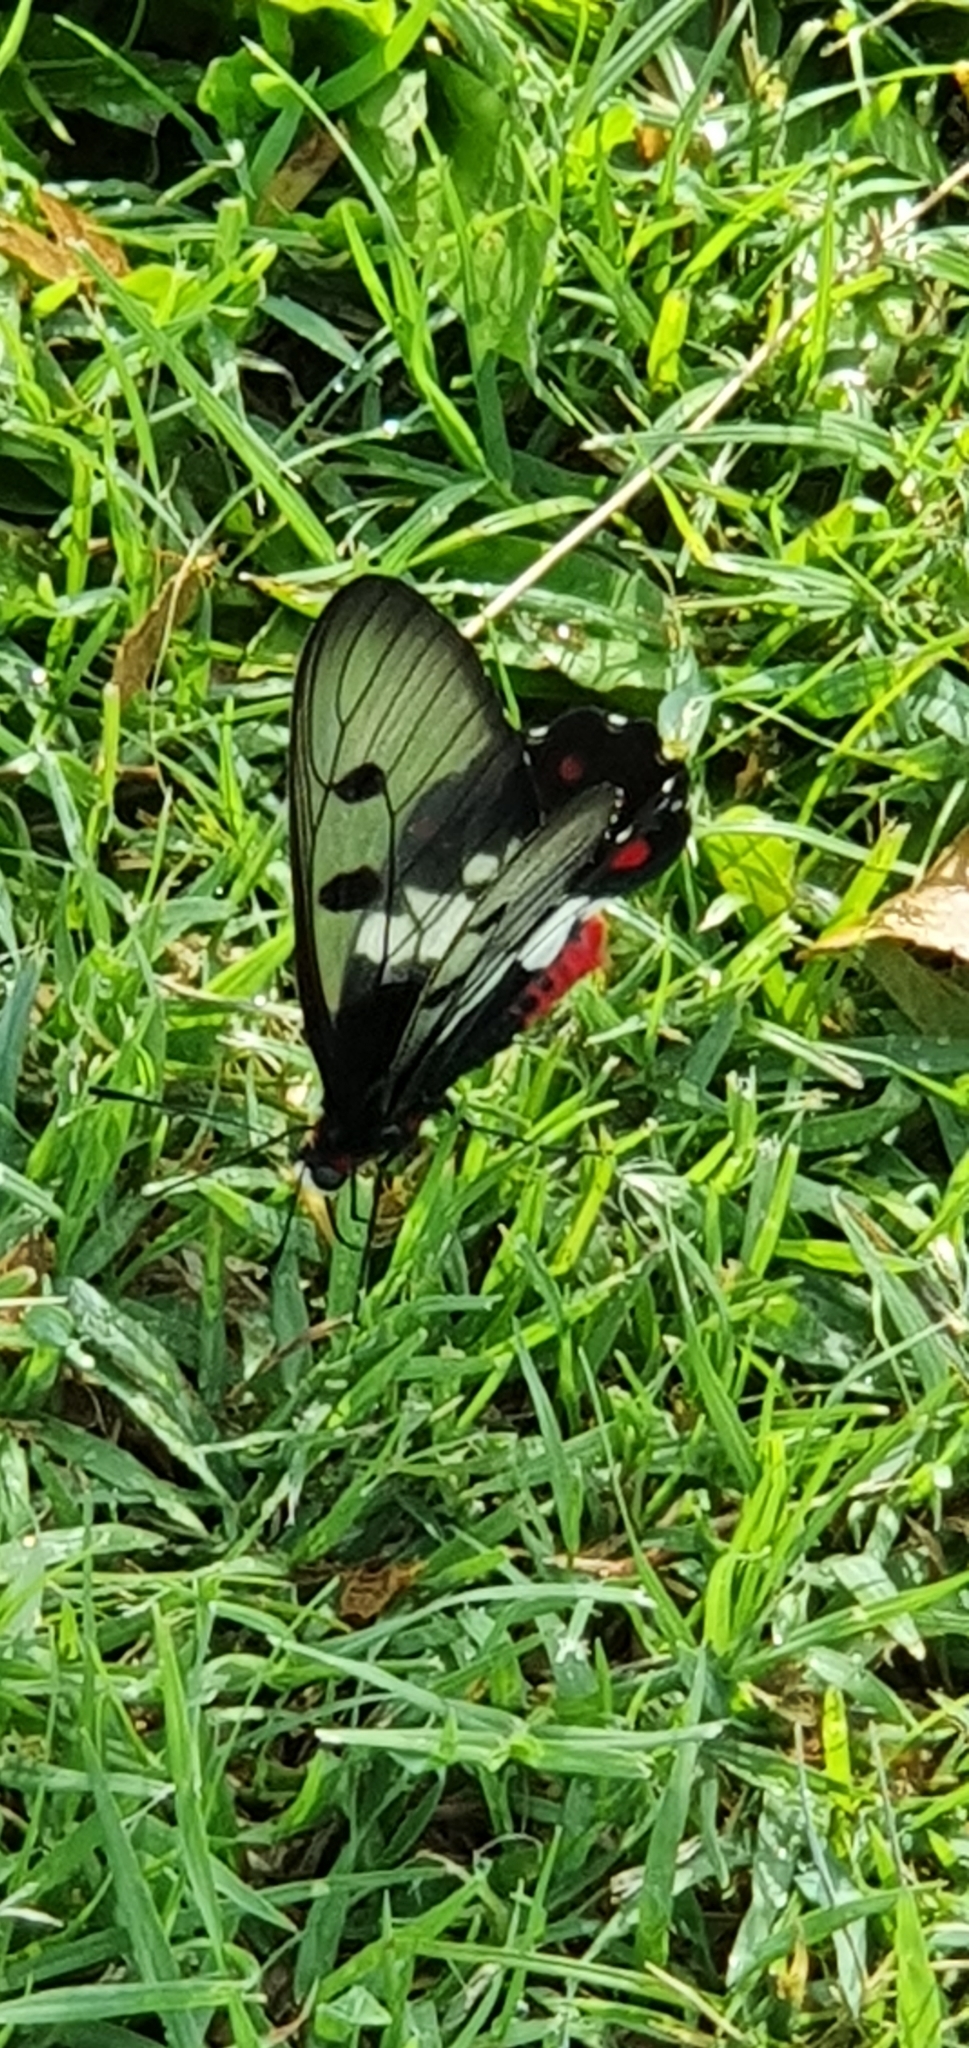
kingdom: Animalia
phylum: Arthropoda
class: Insecta
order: Lepidoptera
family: Papilionidae
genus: Cressida
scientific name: Cressida cressida
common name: Big greasy
